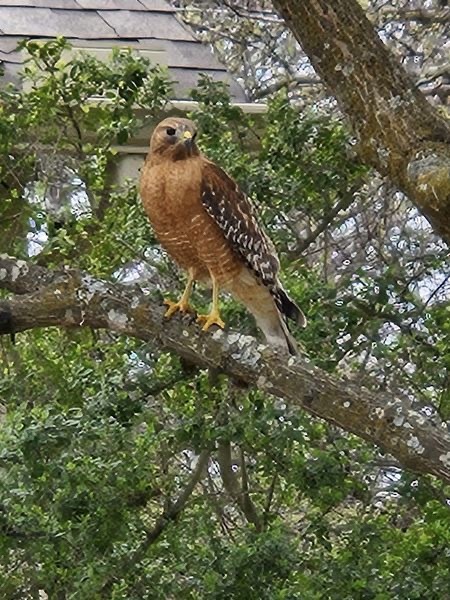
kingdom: Animalia
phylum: Chordata
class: Aves
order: Accipitriformes
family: Accipitridae
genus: Buteo
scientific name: Buteo lineatus
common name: Red-shouldered hawk
